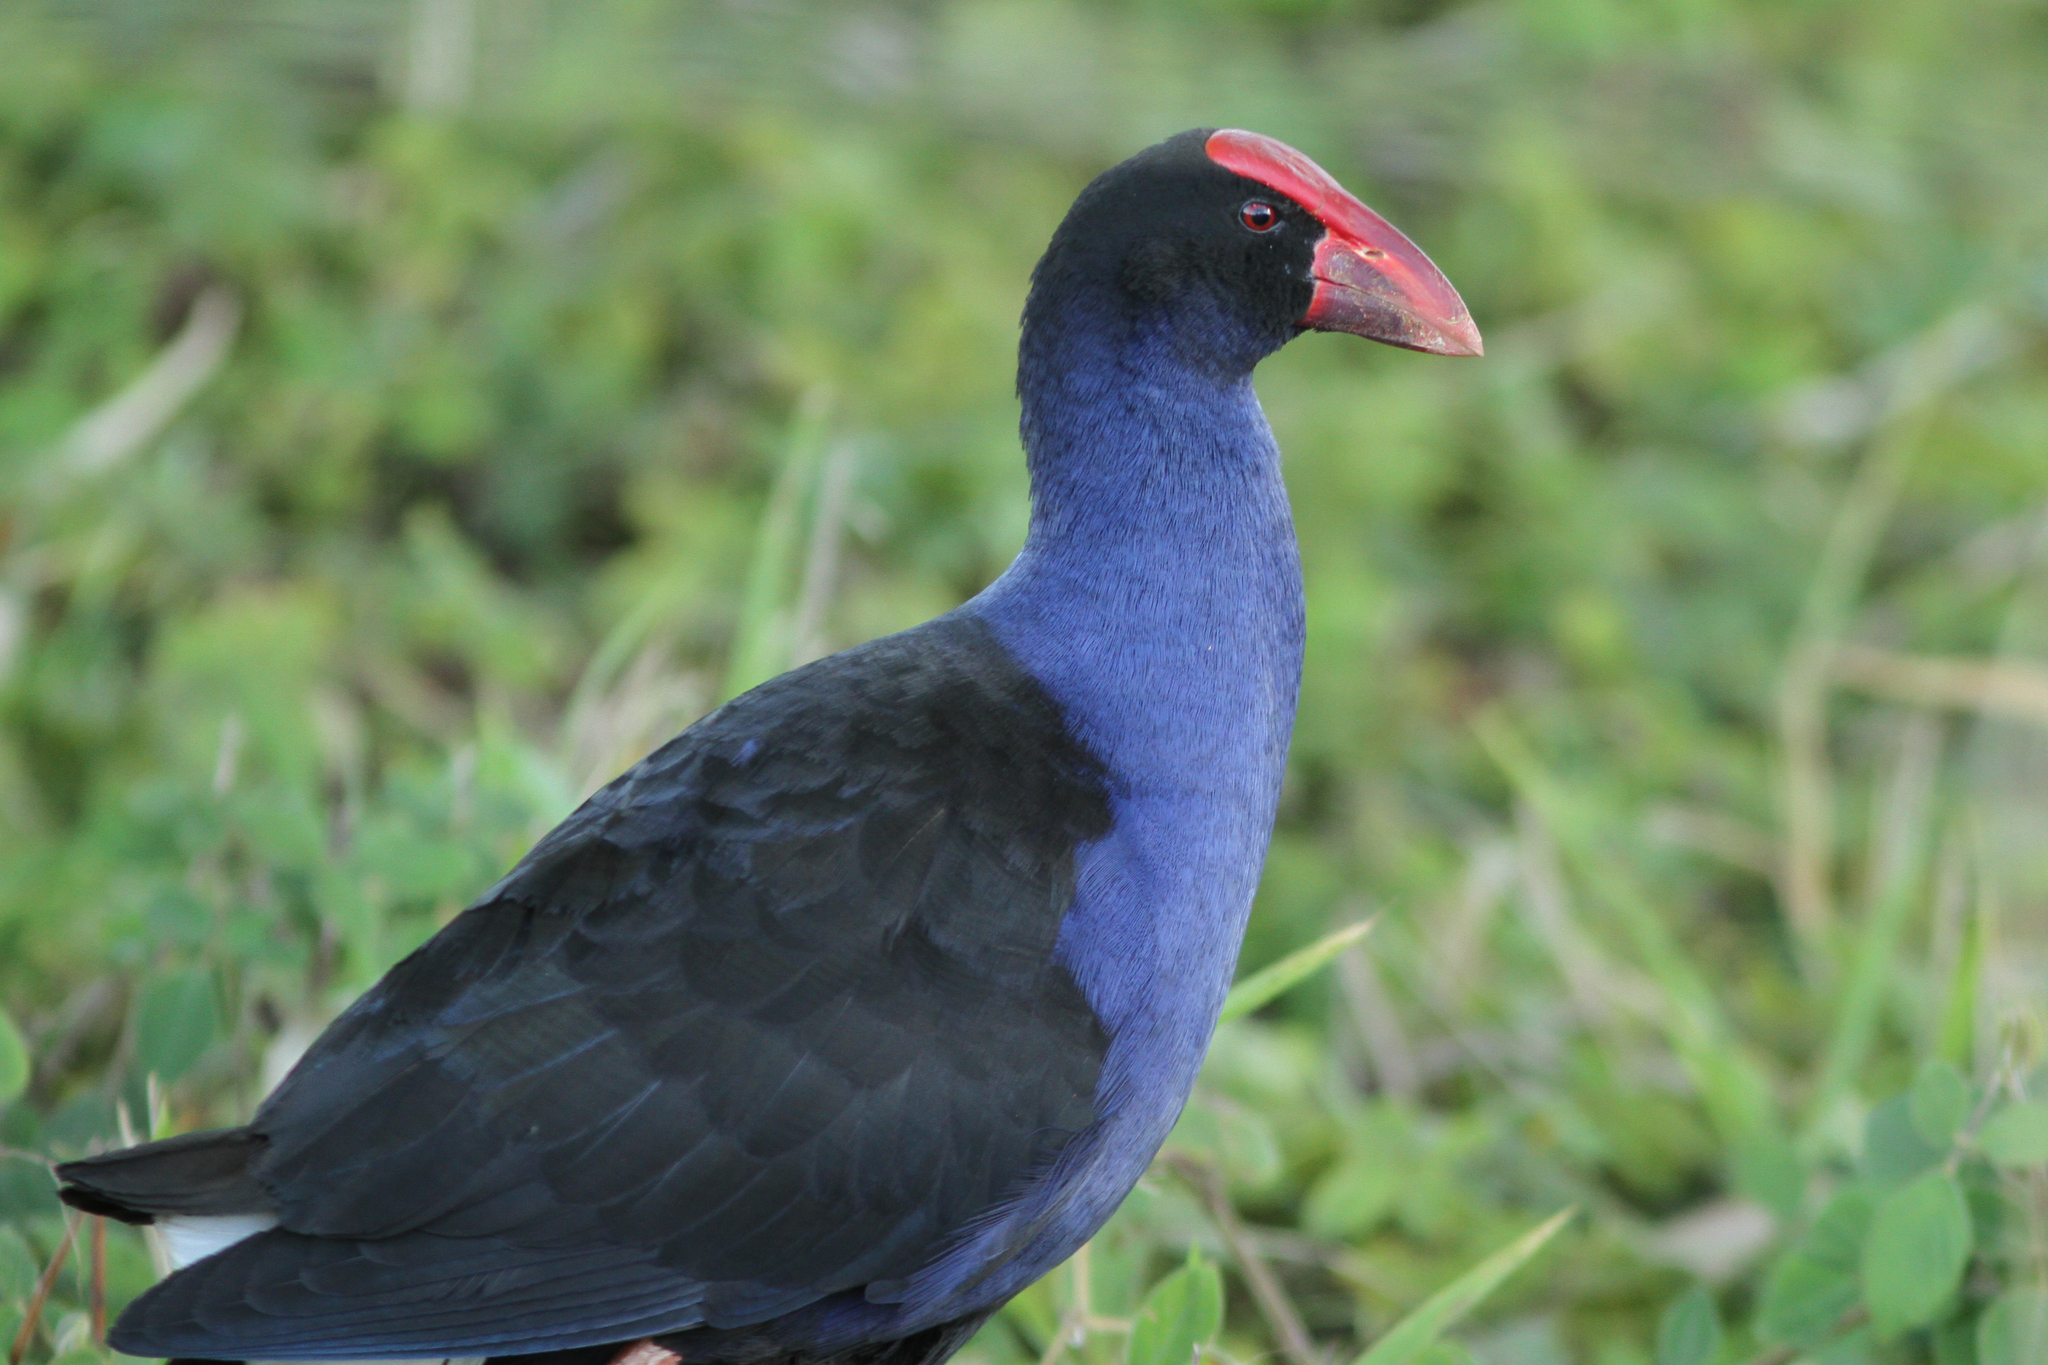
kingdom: Animalia
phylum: Chordata
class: Aves
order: Gruiformes
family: Rallidae
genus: Porphyrio
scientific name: Porphyrio melanotus
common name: Australasian swamphen
